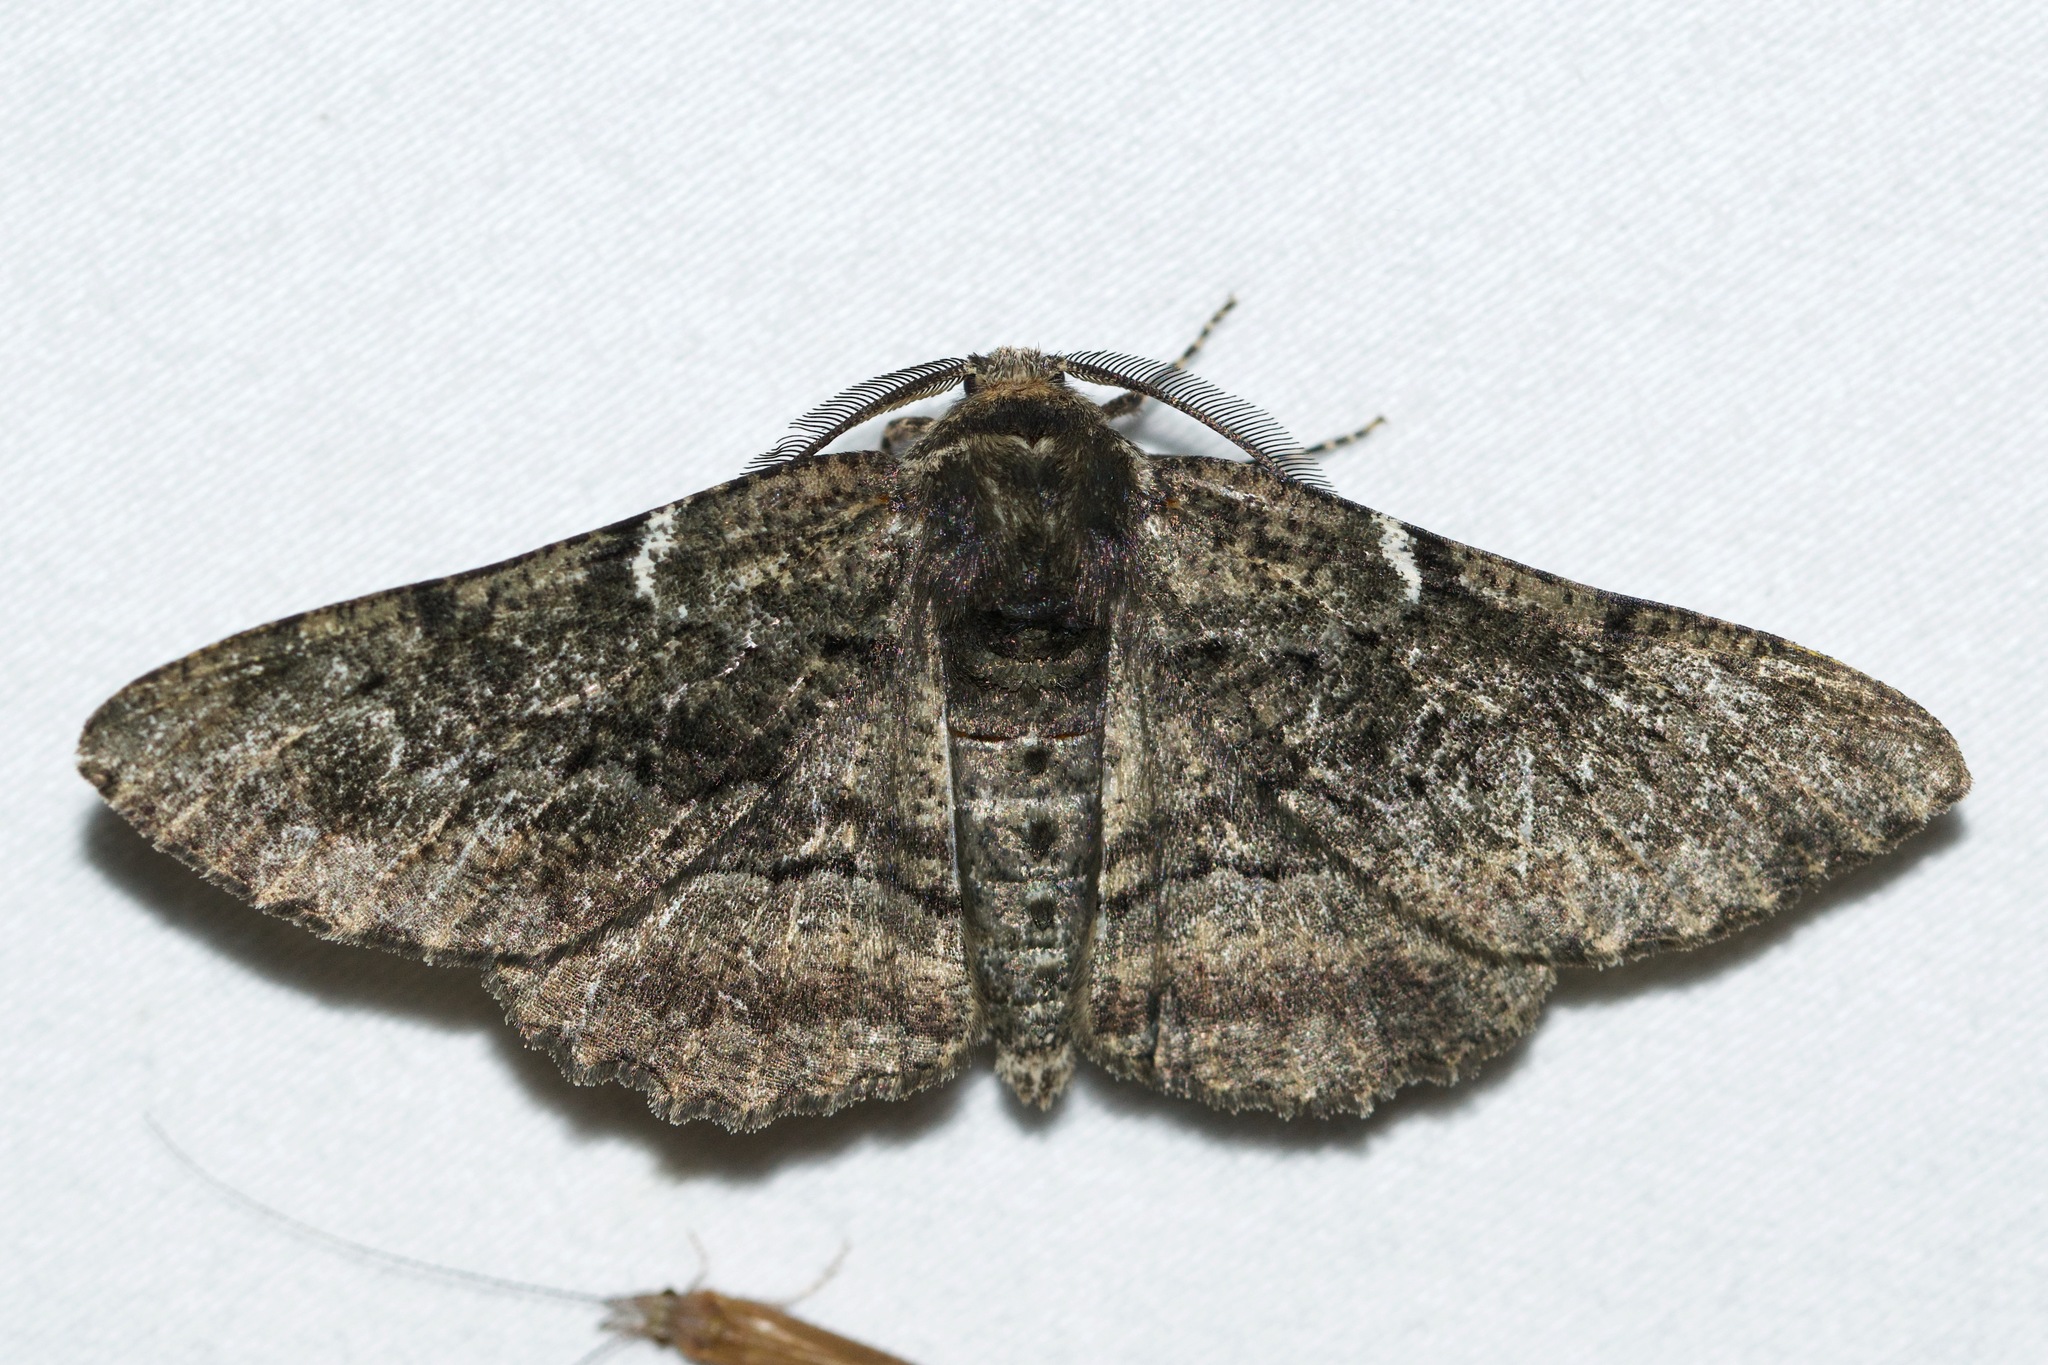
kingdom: Animalia
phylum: Arthropoda
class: Insecta
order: Lepidoptera
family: Geometridae
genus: Phaeoura
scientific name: Phaeoura quernaria
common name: Oak beauty
